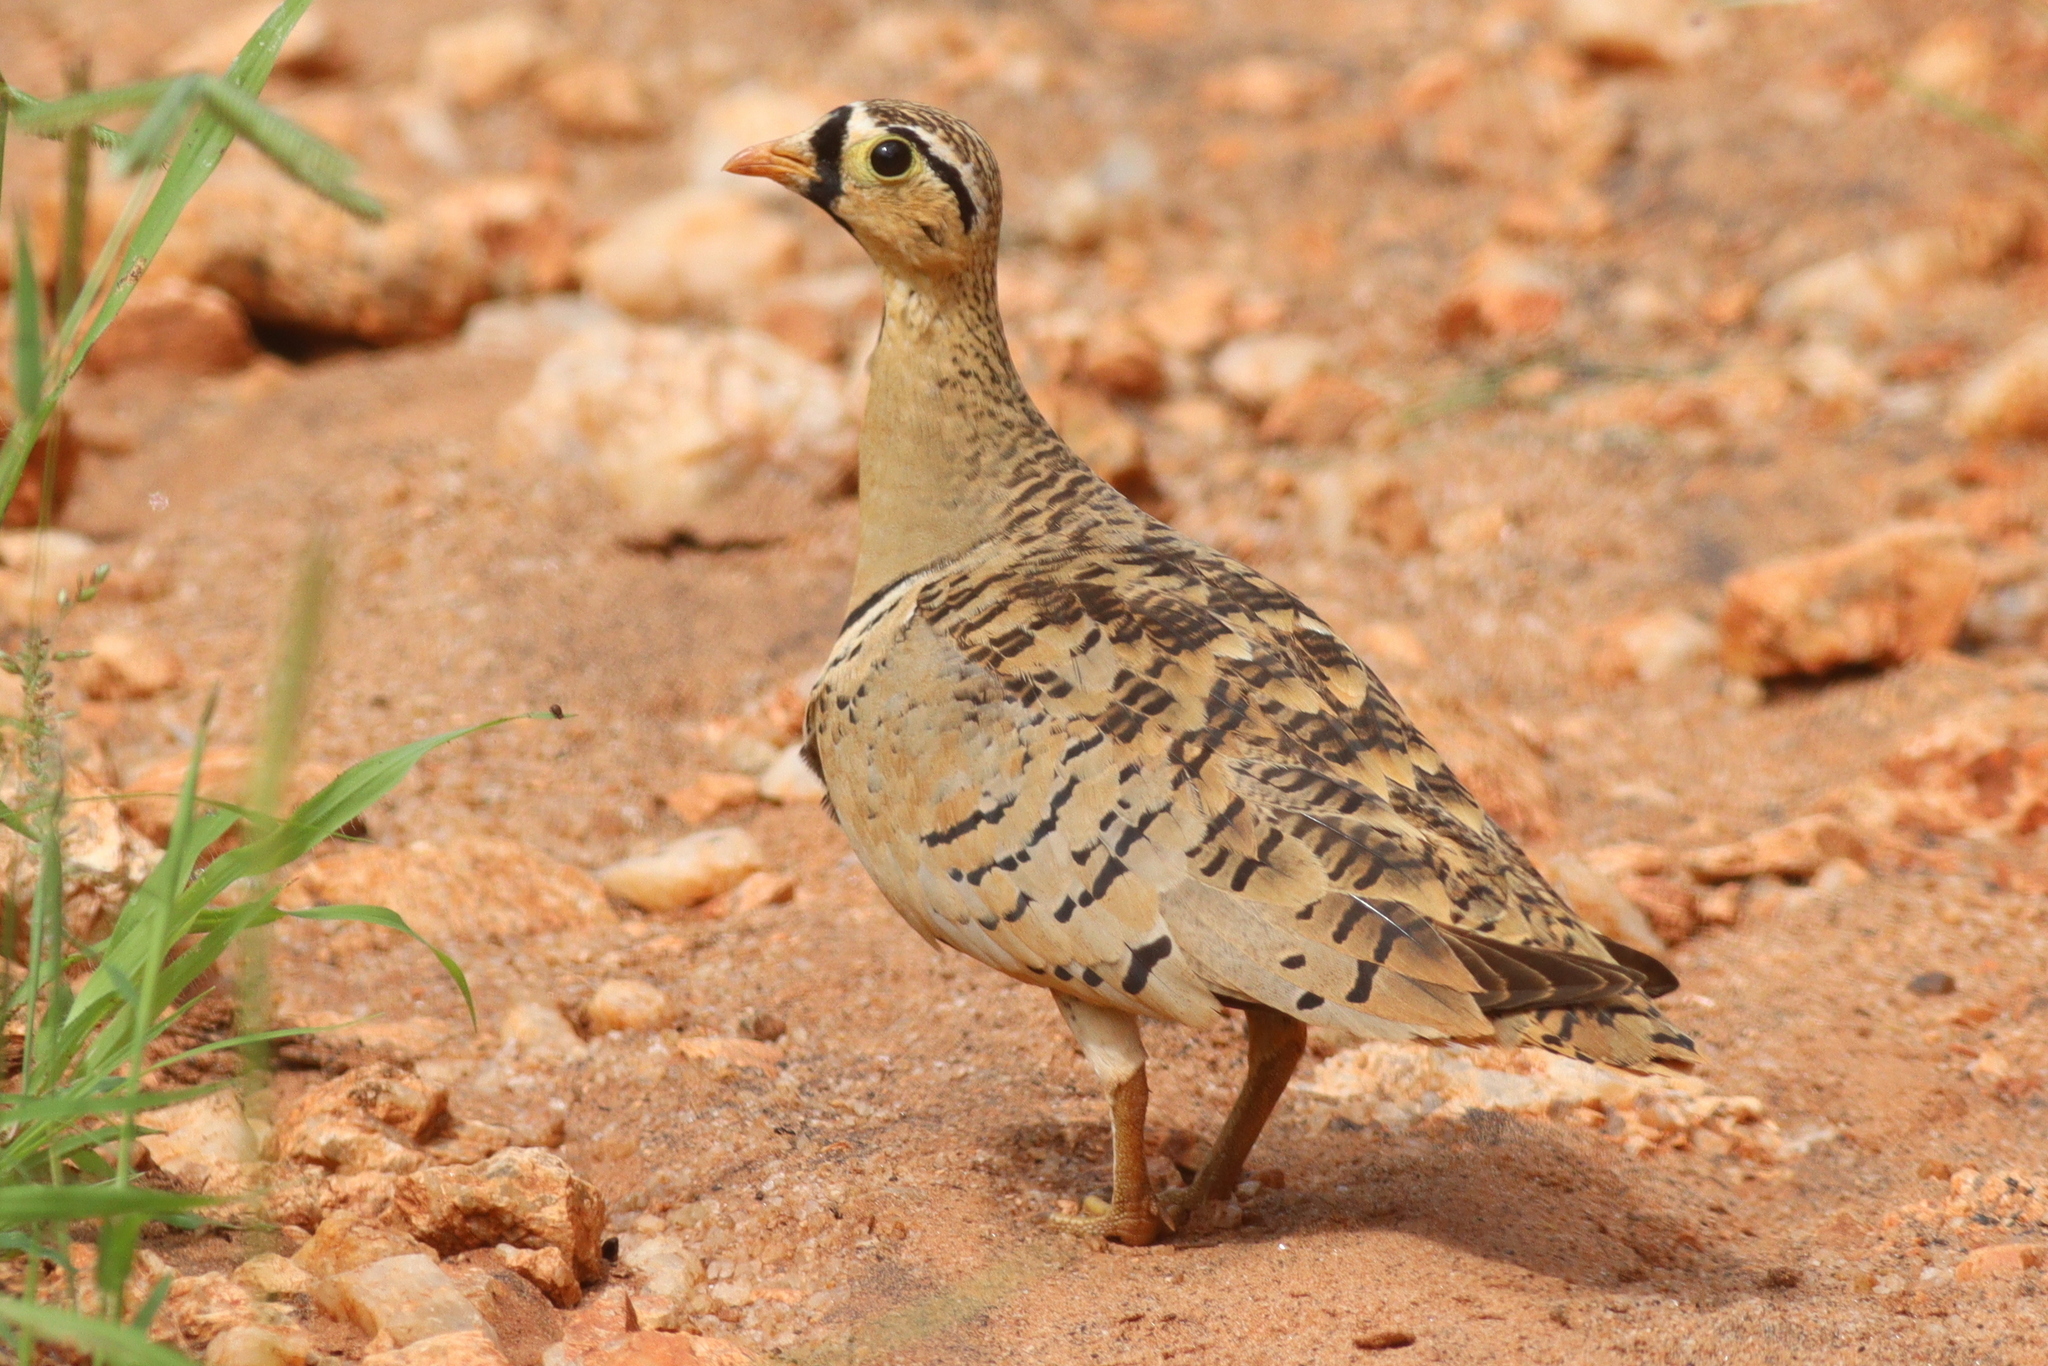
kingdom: Animalia
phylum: Chordata
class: Aves
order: Pteroclidiformes
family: Pteroclididae
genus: Pterocles
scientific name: Pterocles decoratus
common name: Black-faced sandgrouse
